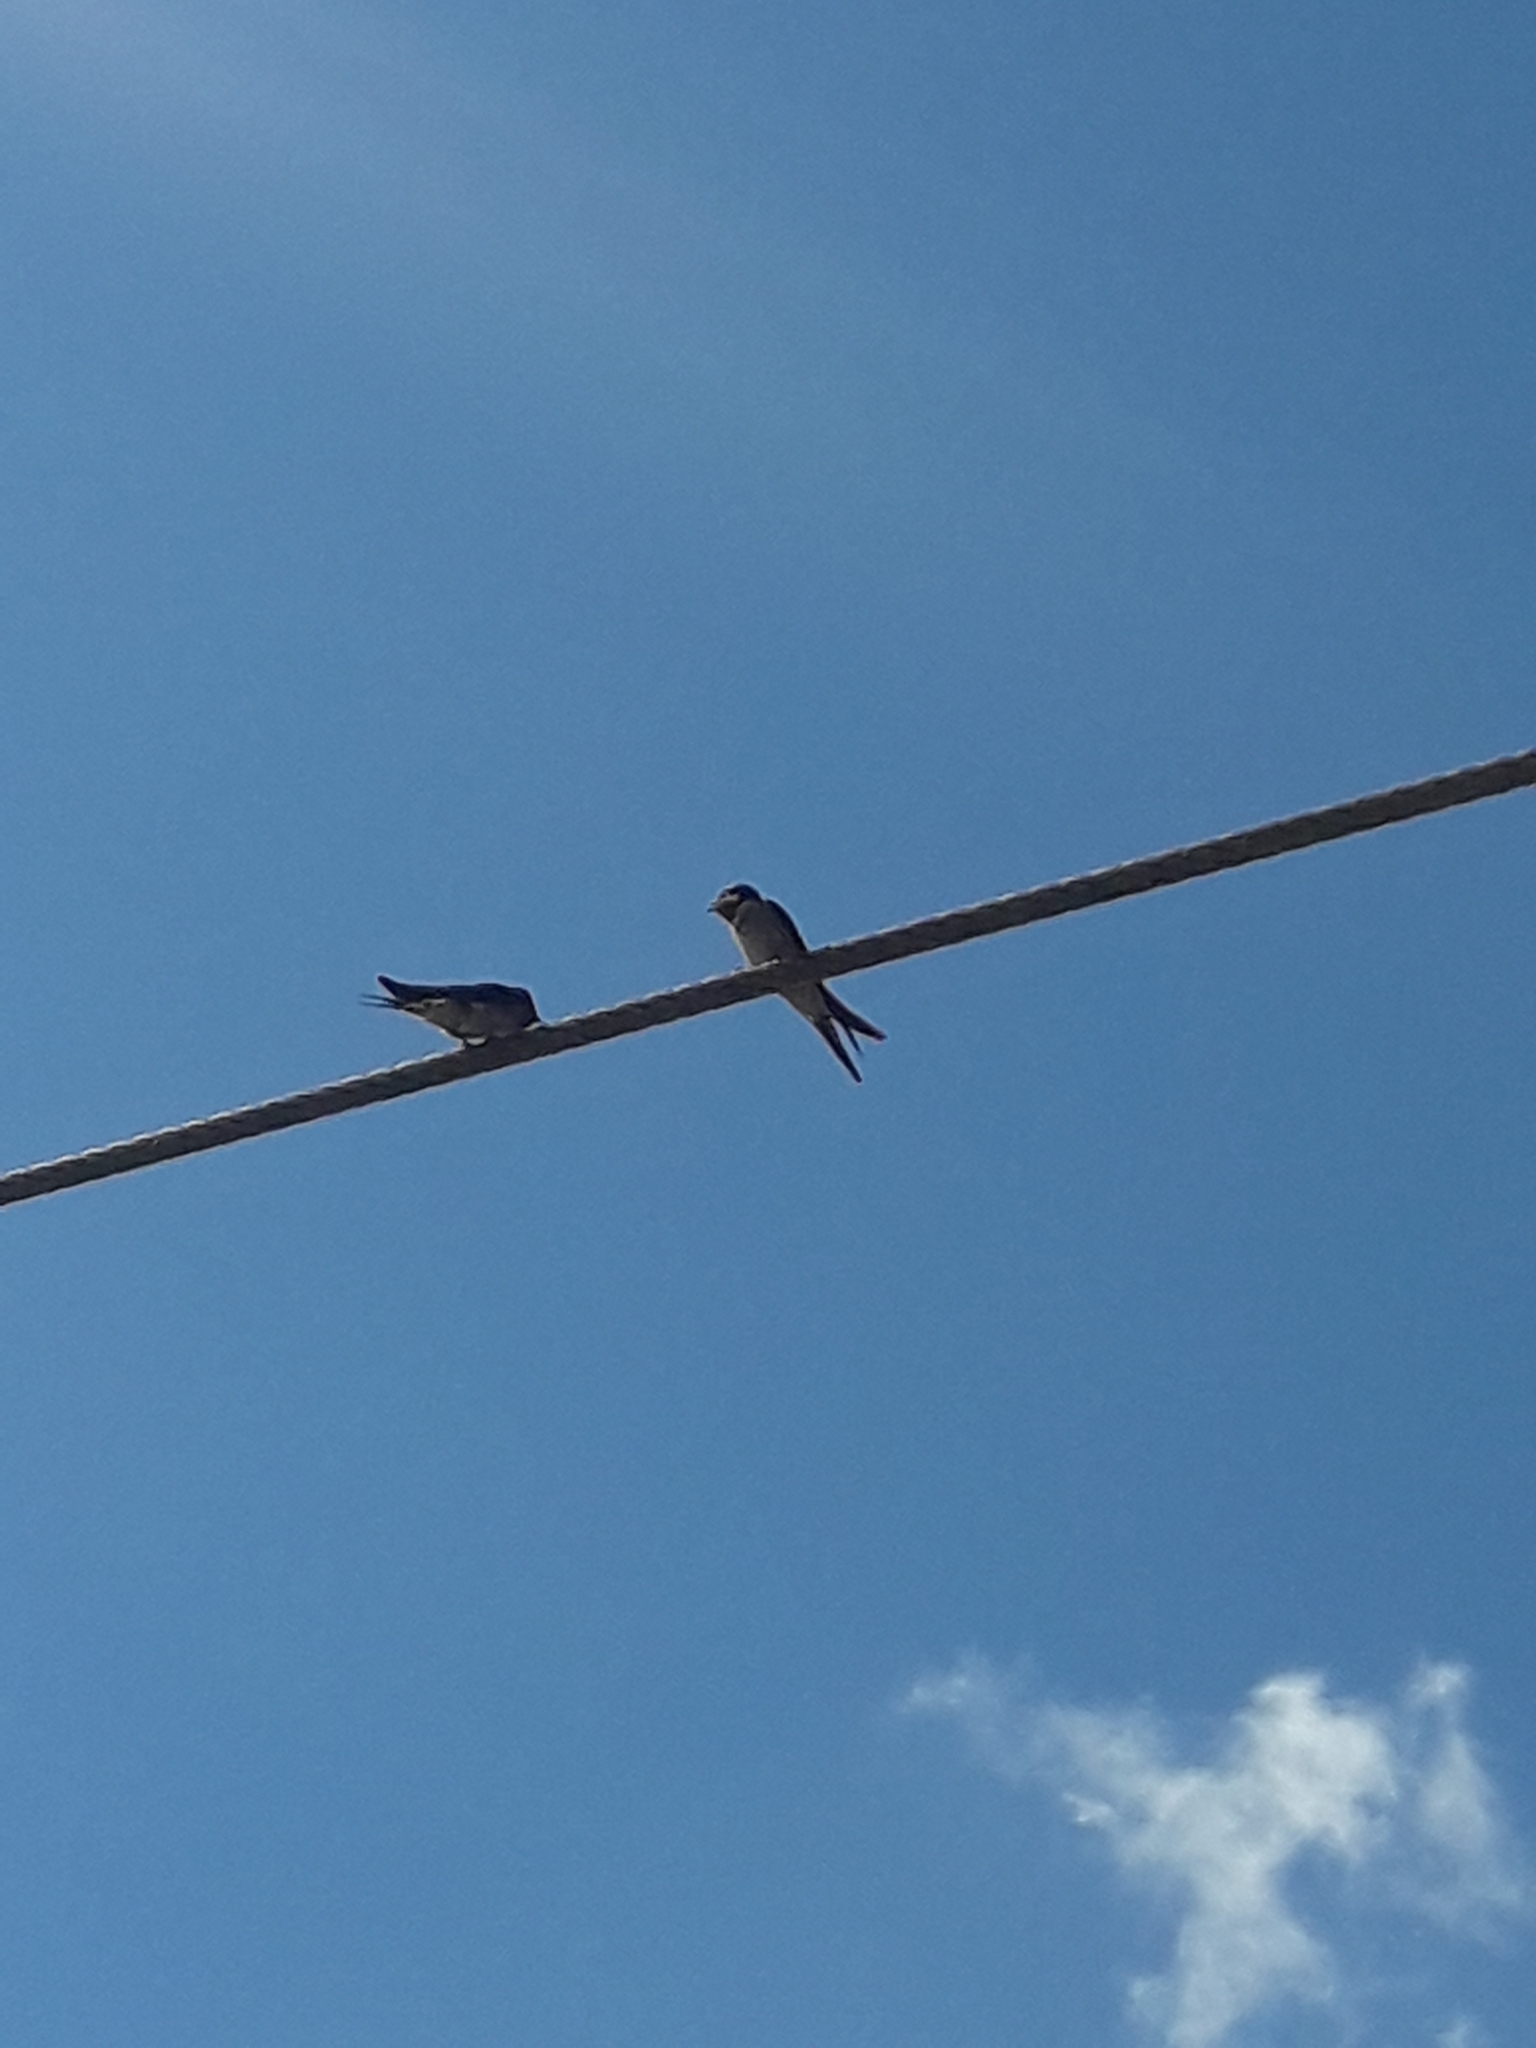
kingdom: Animalia
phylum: Chordata
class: Aves
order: Passeriformes
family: Hirundinidae
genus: Hirundo
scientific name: Hirundo neoxena
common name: Welcome swallow
